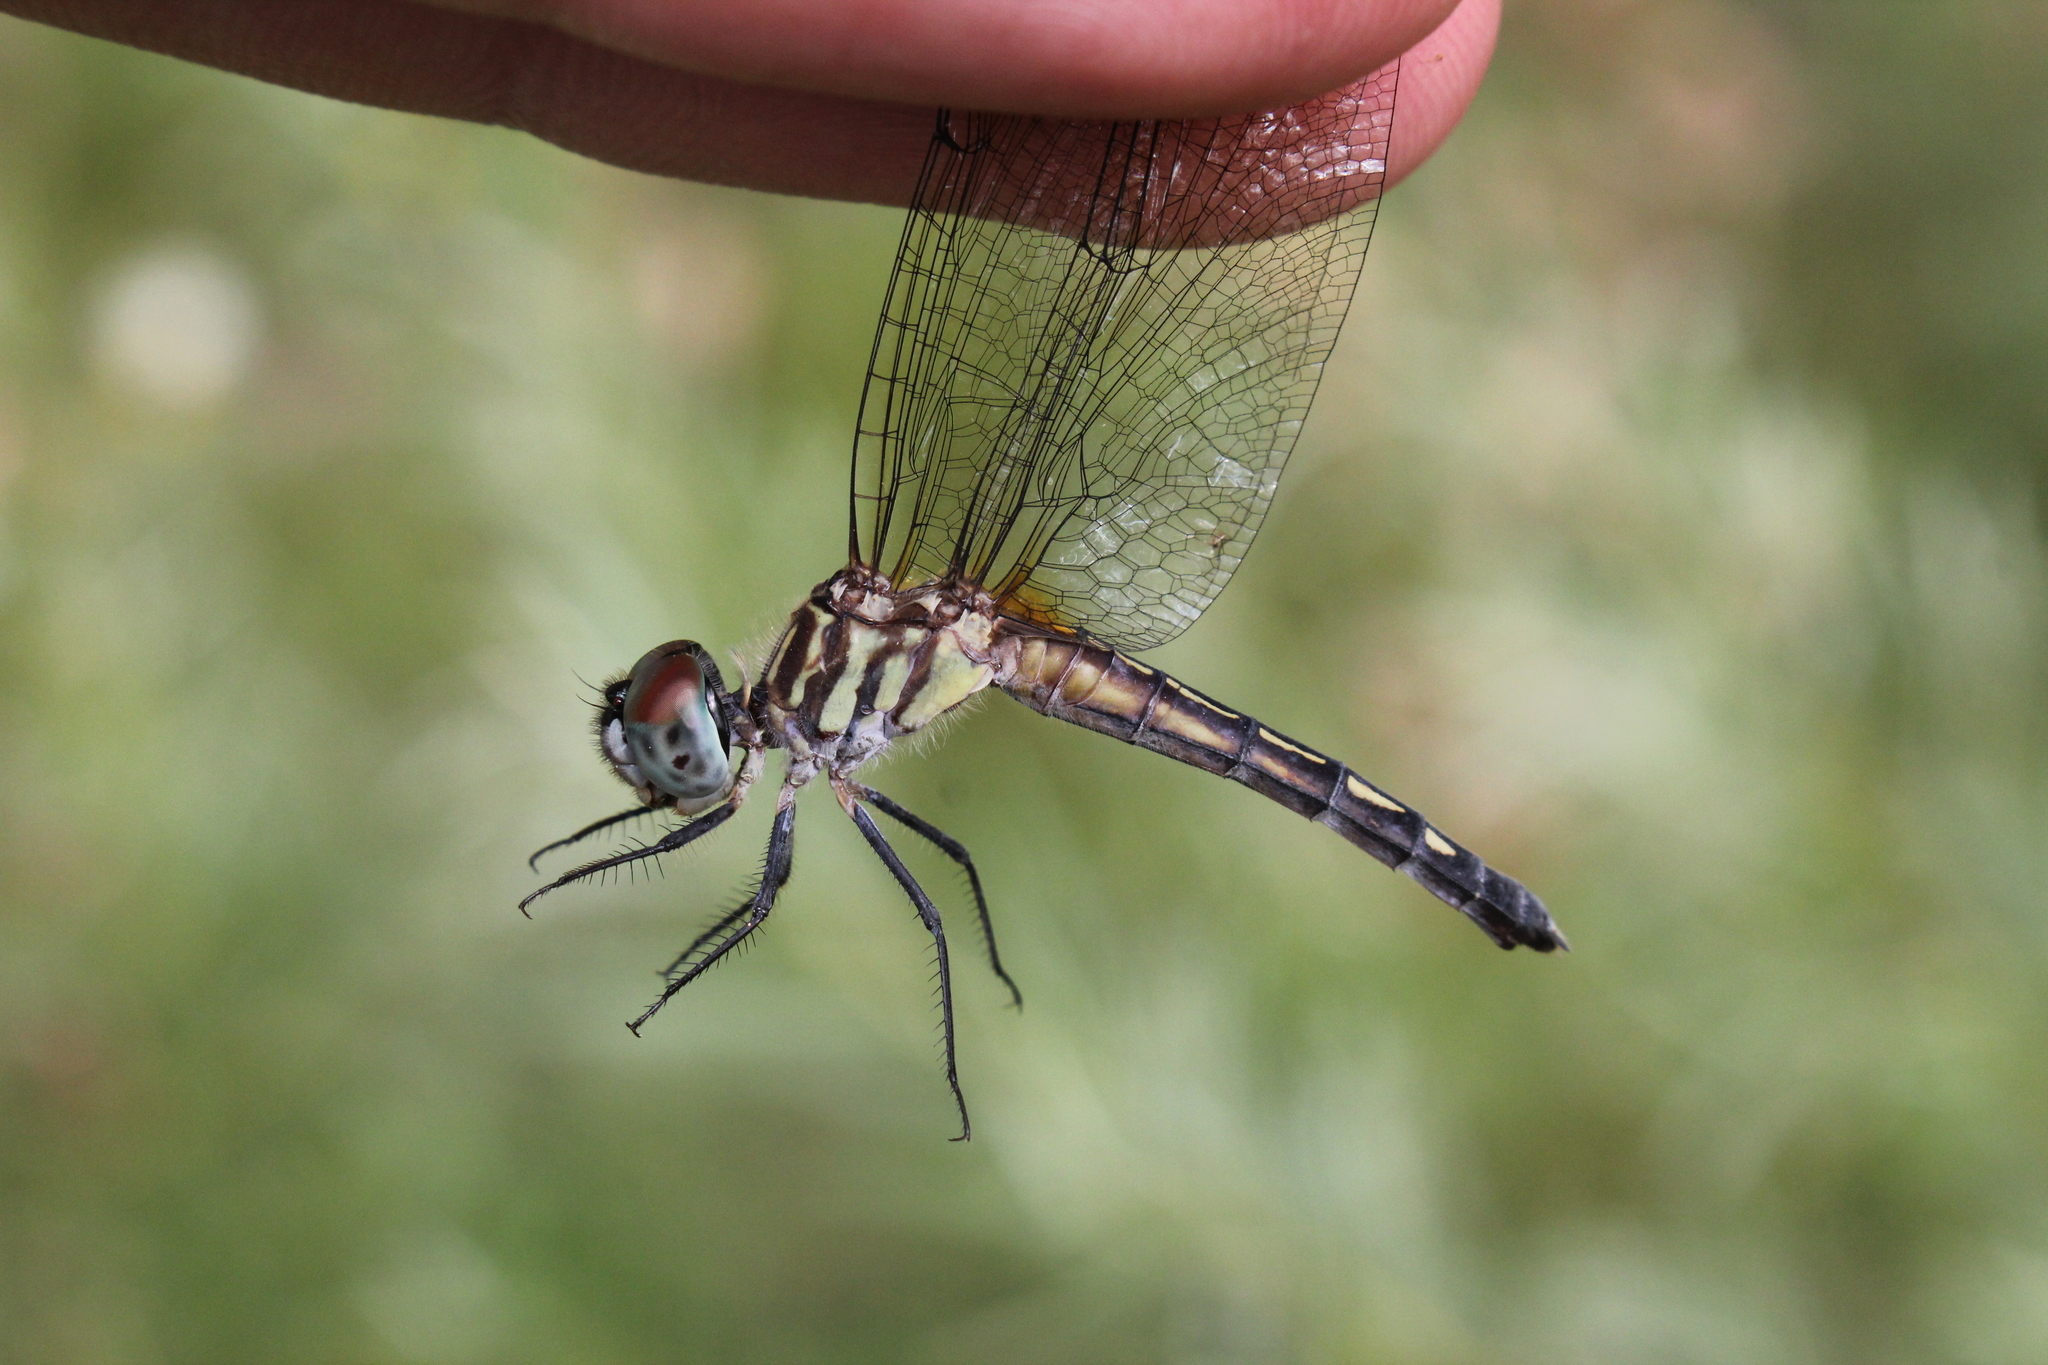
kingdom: Animalia
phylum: Arthropoda
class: Insecta
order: Odonata
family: Libellulidae
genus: Pachydiplax
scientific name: Pachydiplax longipennis
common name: Blue dasher
